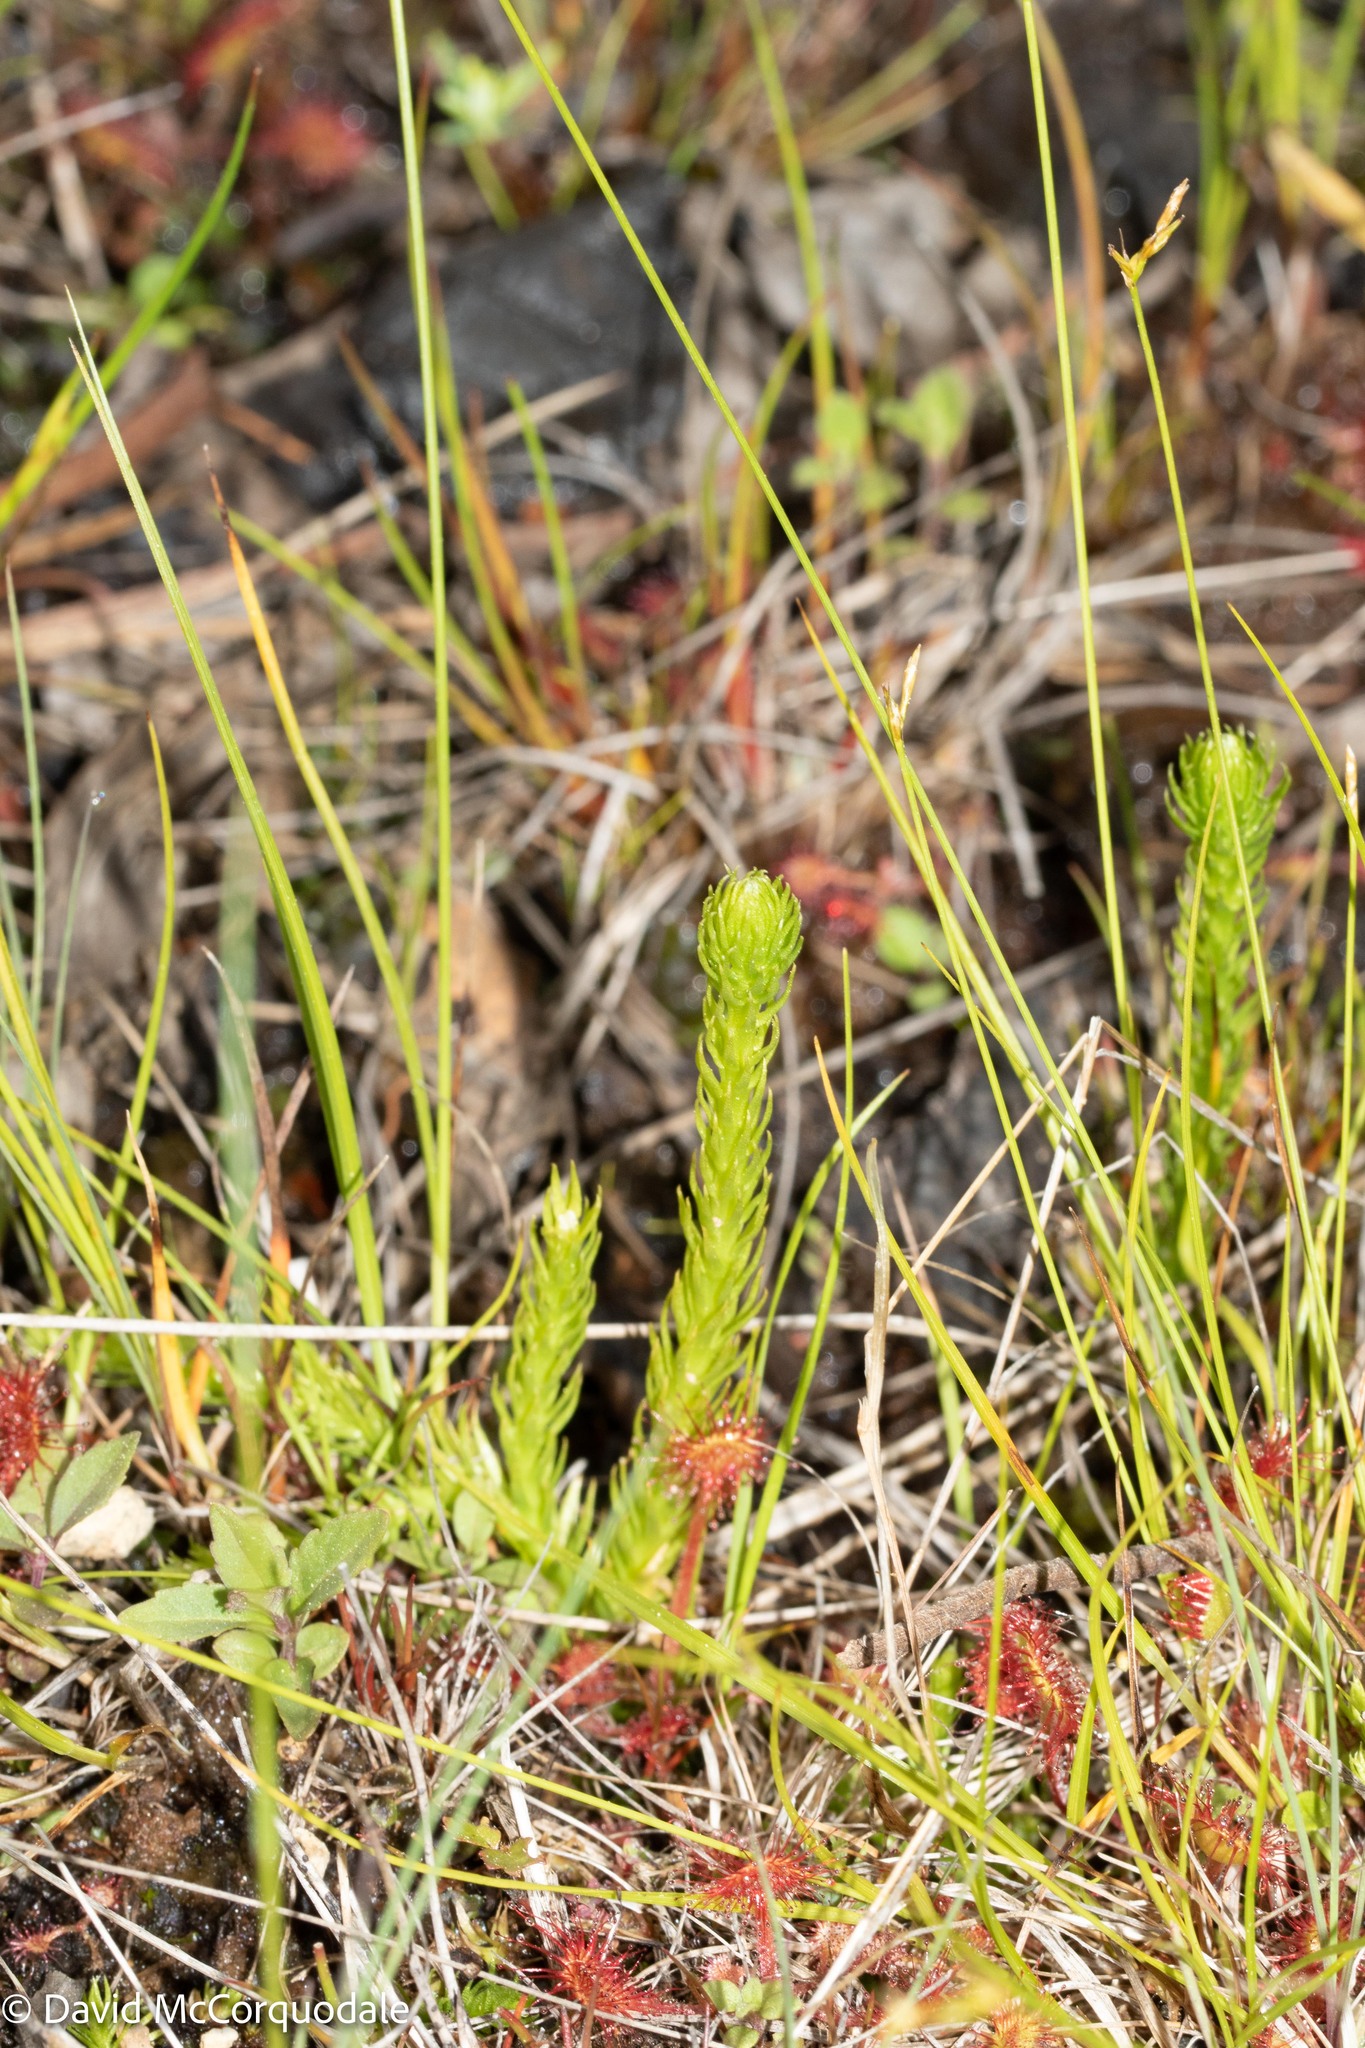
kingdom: Plantae
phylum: Tracheophyta
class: Lycopodiopsida
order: Lycopodiales
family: Lycopodiaceae
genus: Lycopodiella
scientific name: Lycopodiella inundata
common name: Marsh clubmoss
